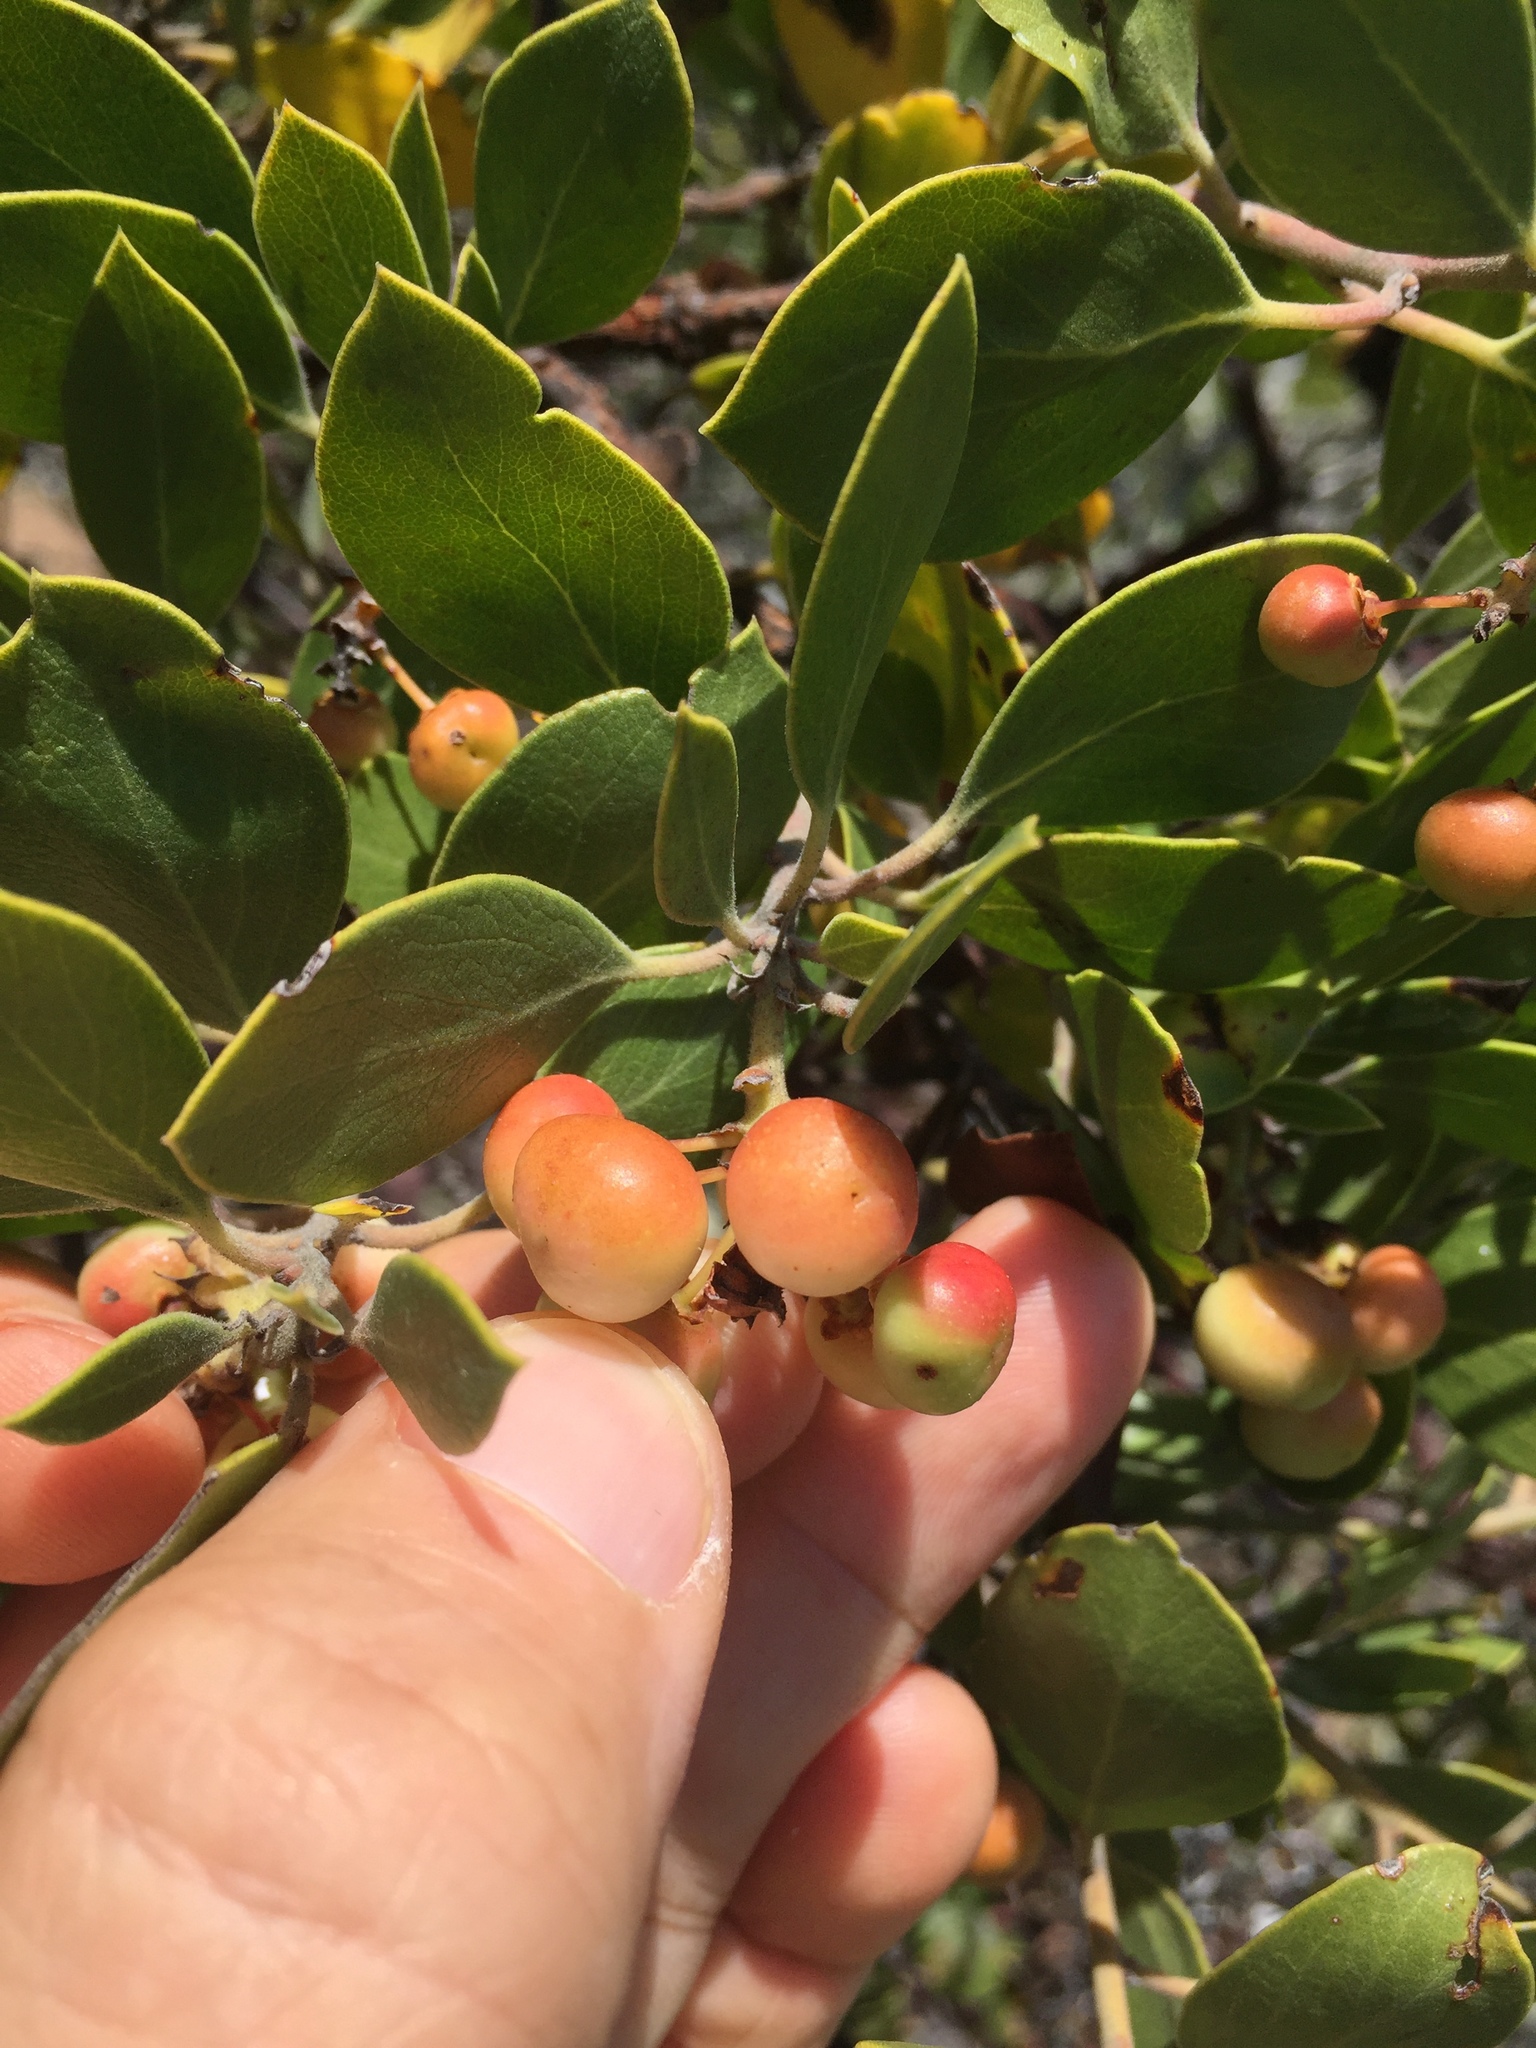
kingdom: Plantae
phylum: Tracheophyta
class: Magnoliopsida
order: Ericales
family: Ericaceae
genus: Arctostaphylos
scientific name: Arctostaphylos manzanita
